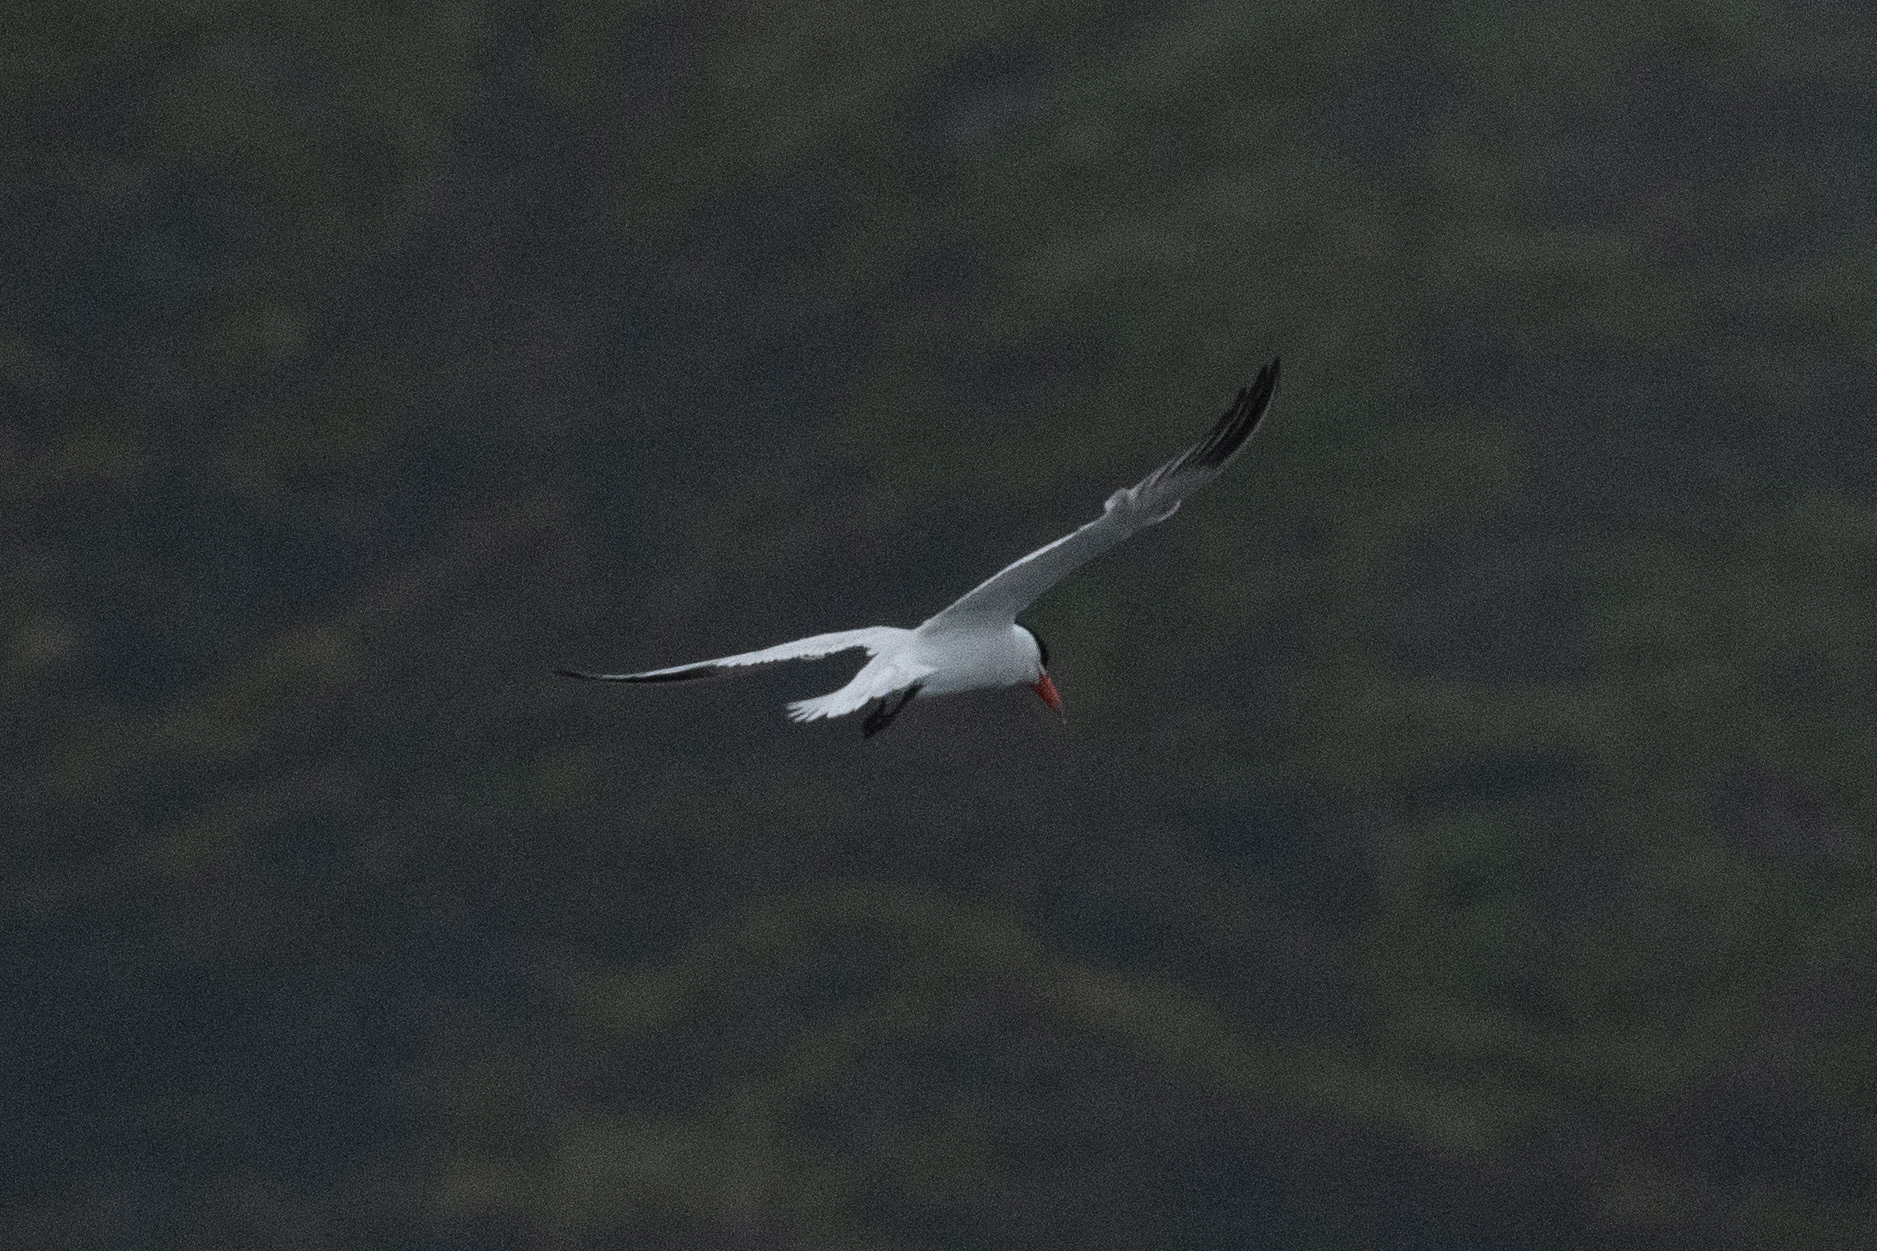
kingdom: Animalia
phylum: Chordata
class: Aves
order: Charadriiformes
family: Laridae
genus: Hydroprogne
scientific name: Hydroprogne caspia
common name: Caspian tern
